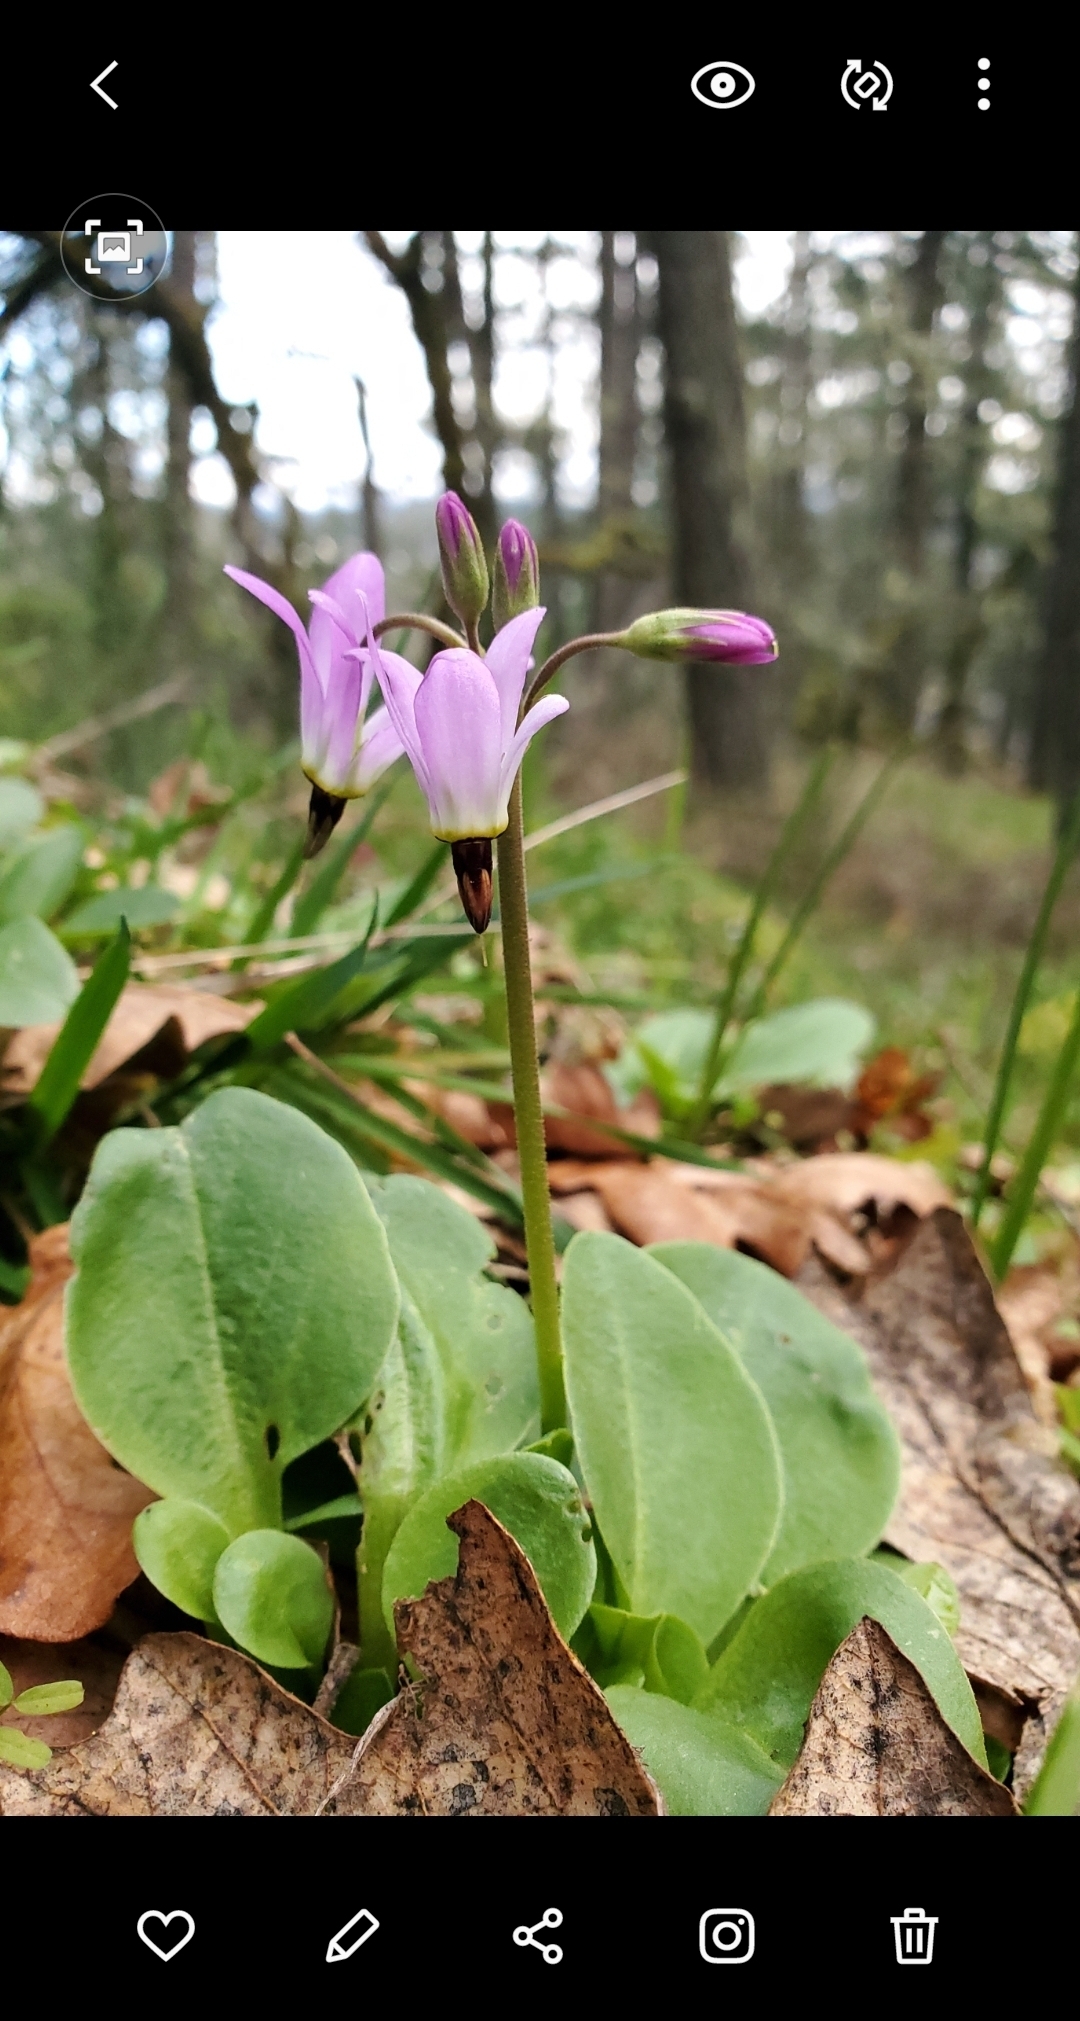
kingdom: Plantae
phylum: Tracheophyta
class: Magnoliopsida
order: Ericales
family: Primulaceae
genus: Dodecatheon
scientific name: Dodecatheon hendersonii
